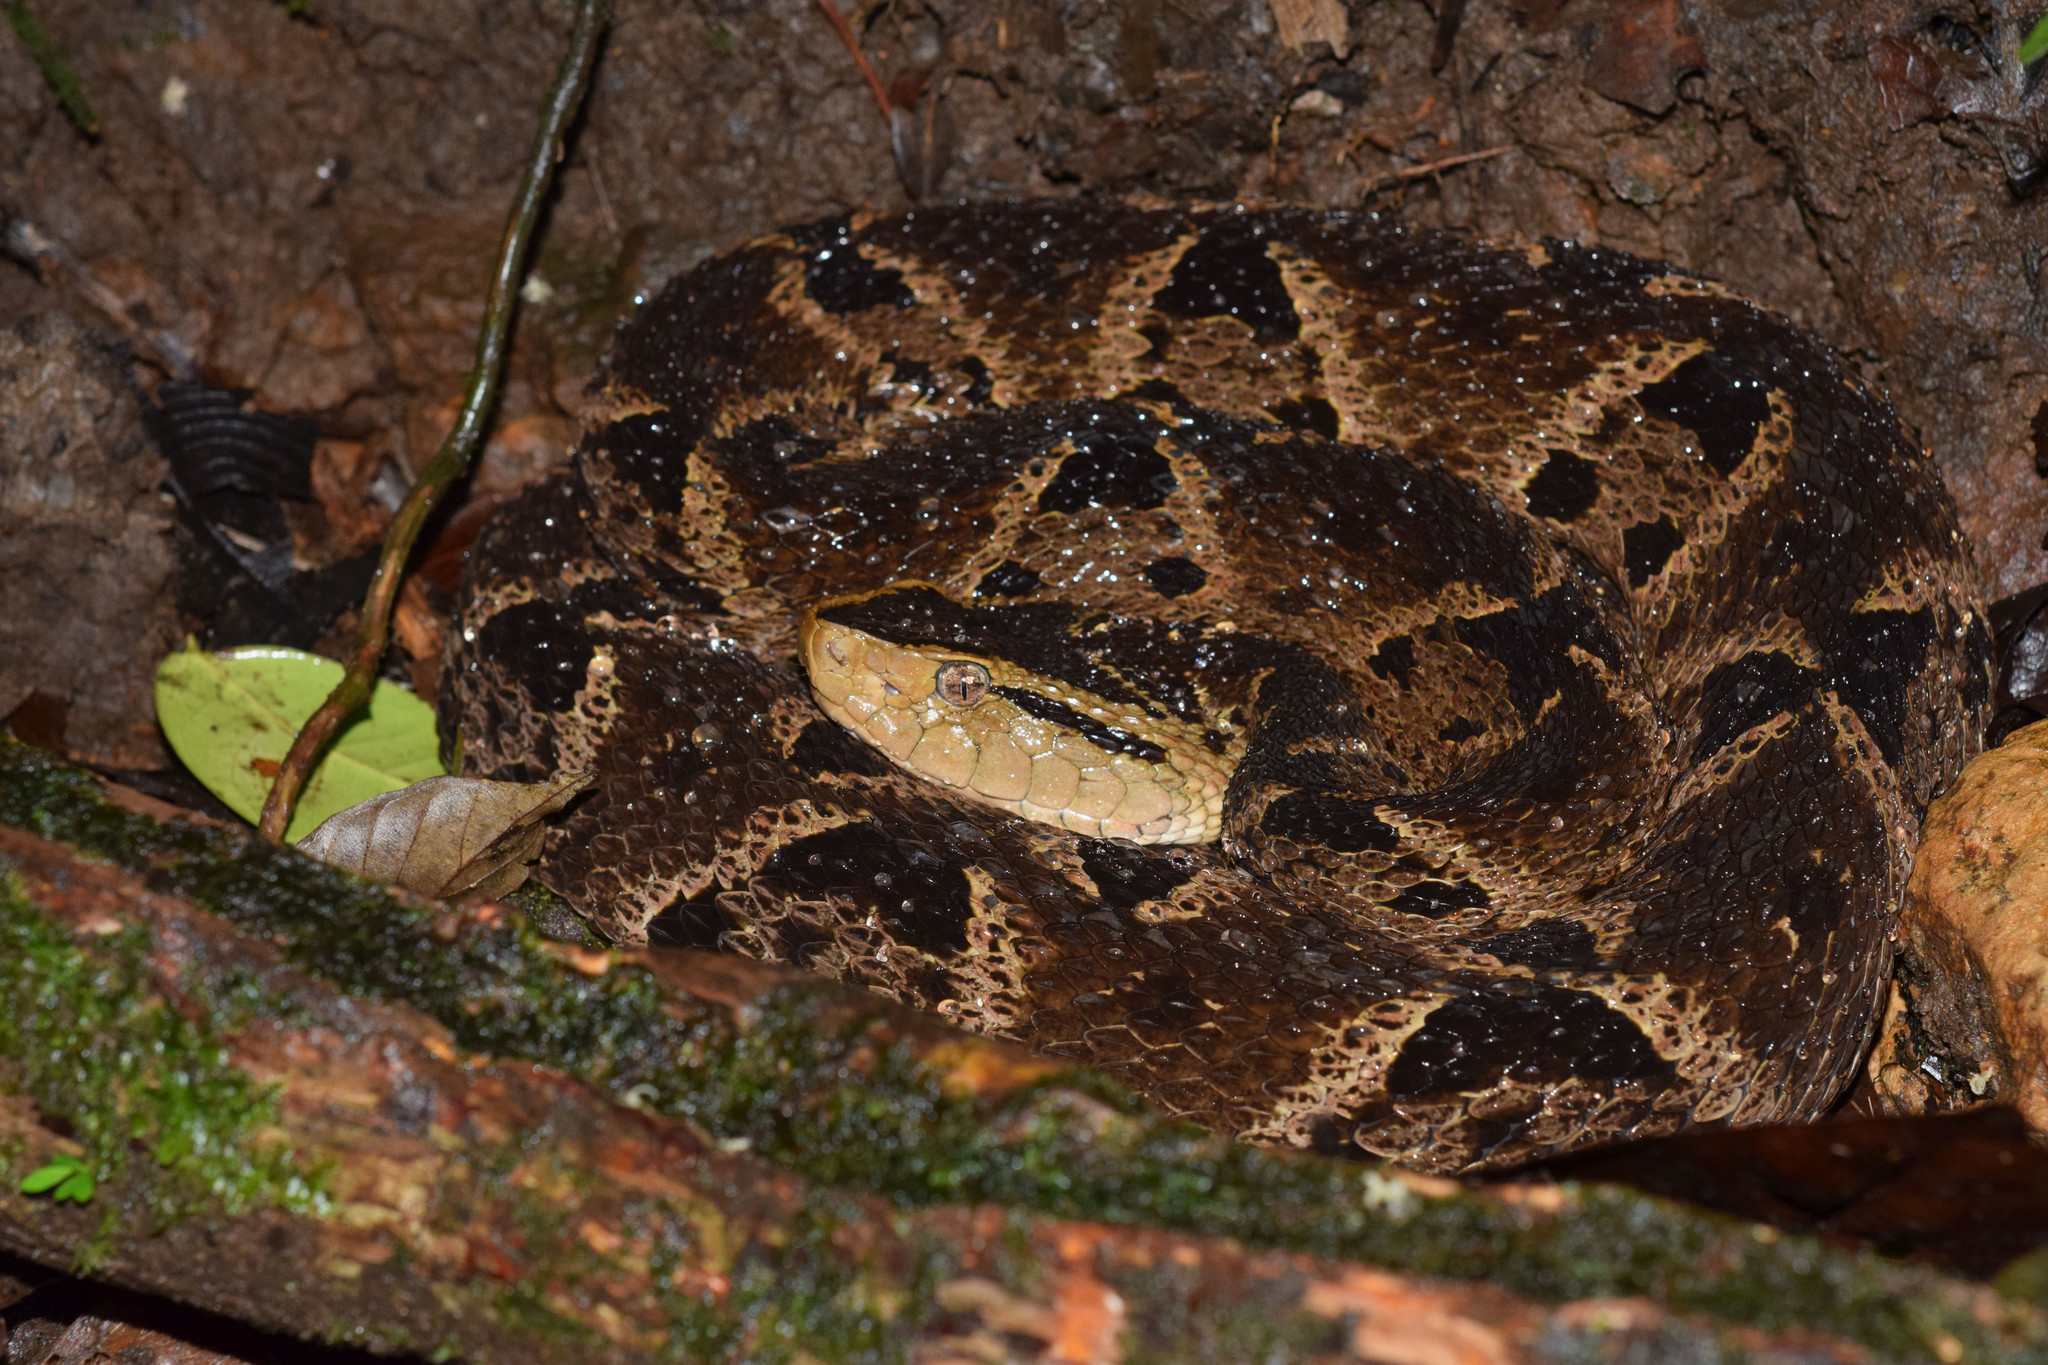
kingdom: Animalia
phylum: Chordata
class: Squamata
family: Viperidae
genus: Bothrops
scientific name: Bothrops asper
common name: Terciopelo
